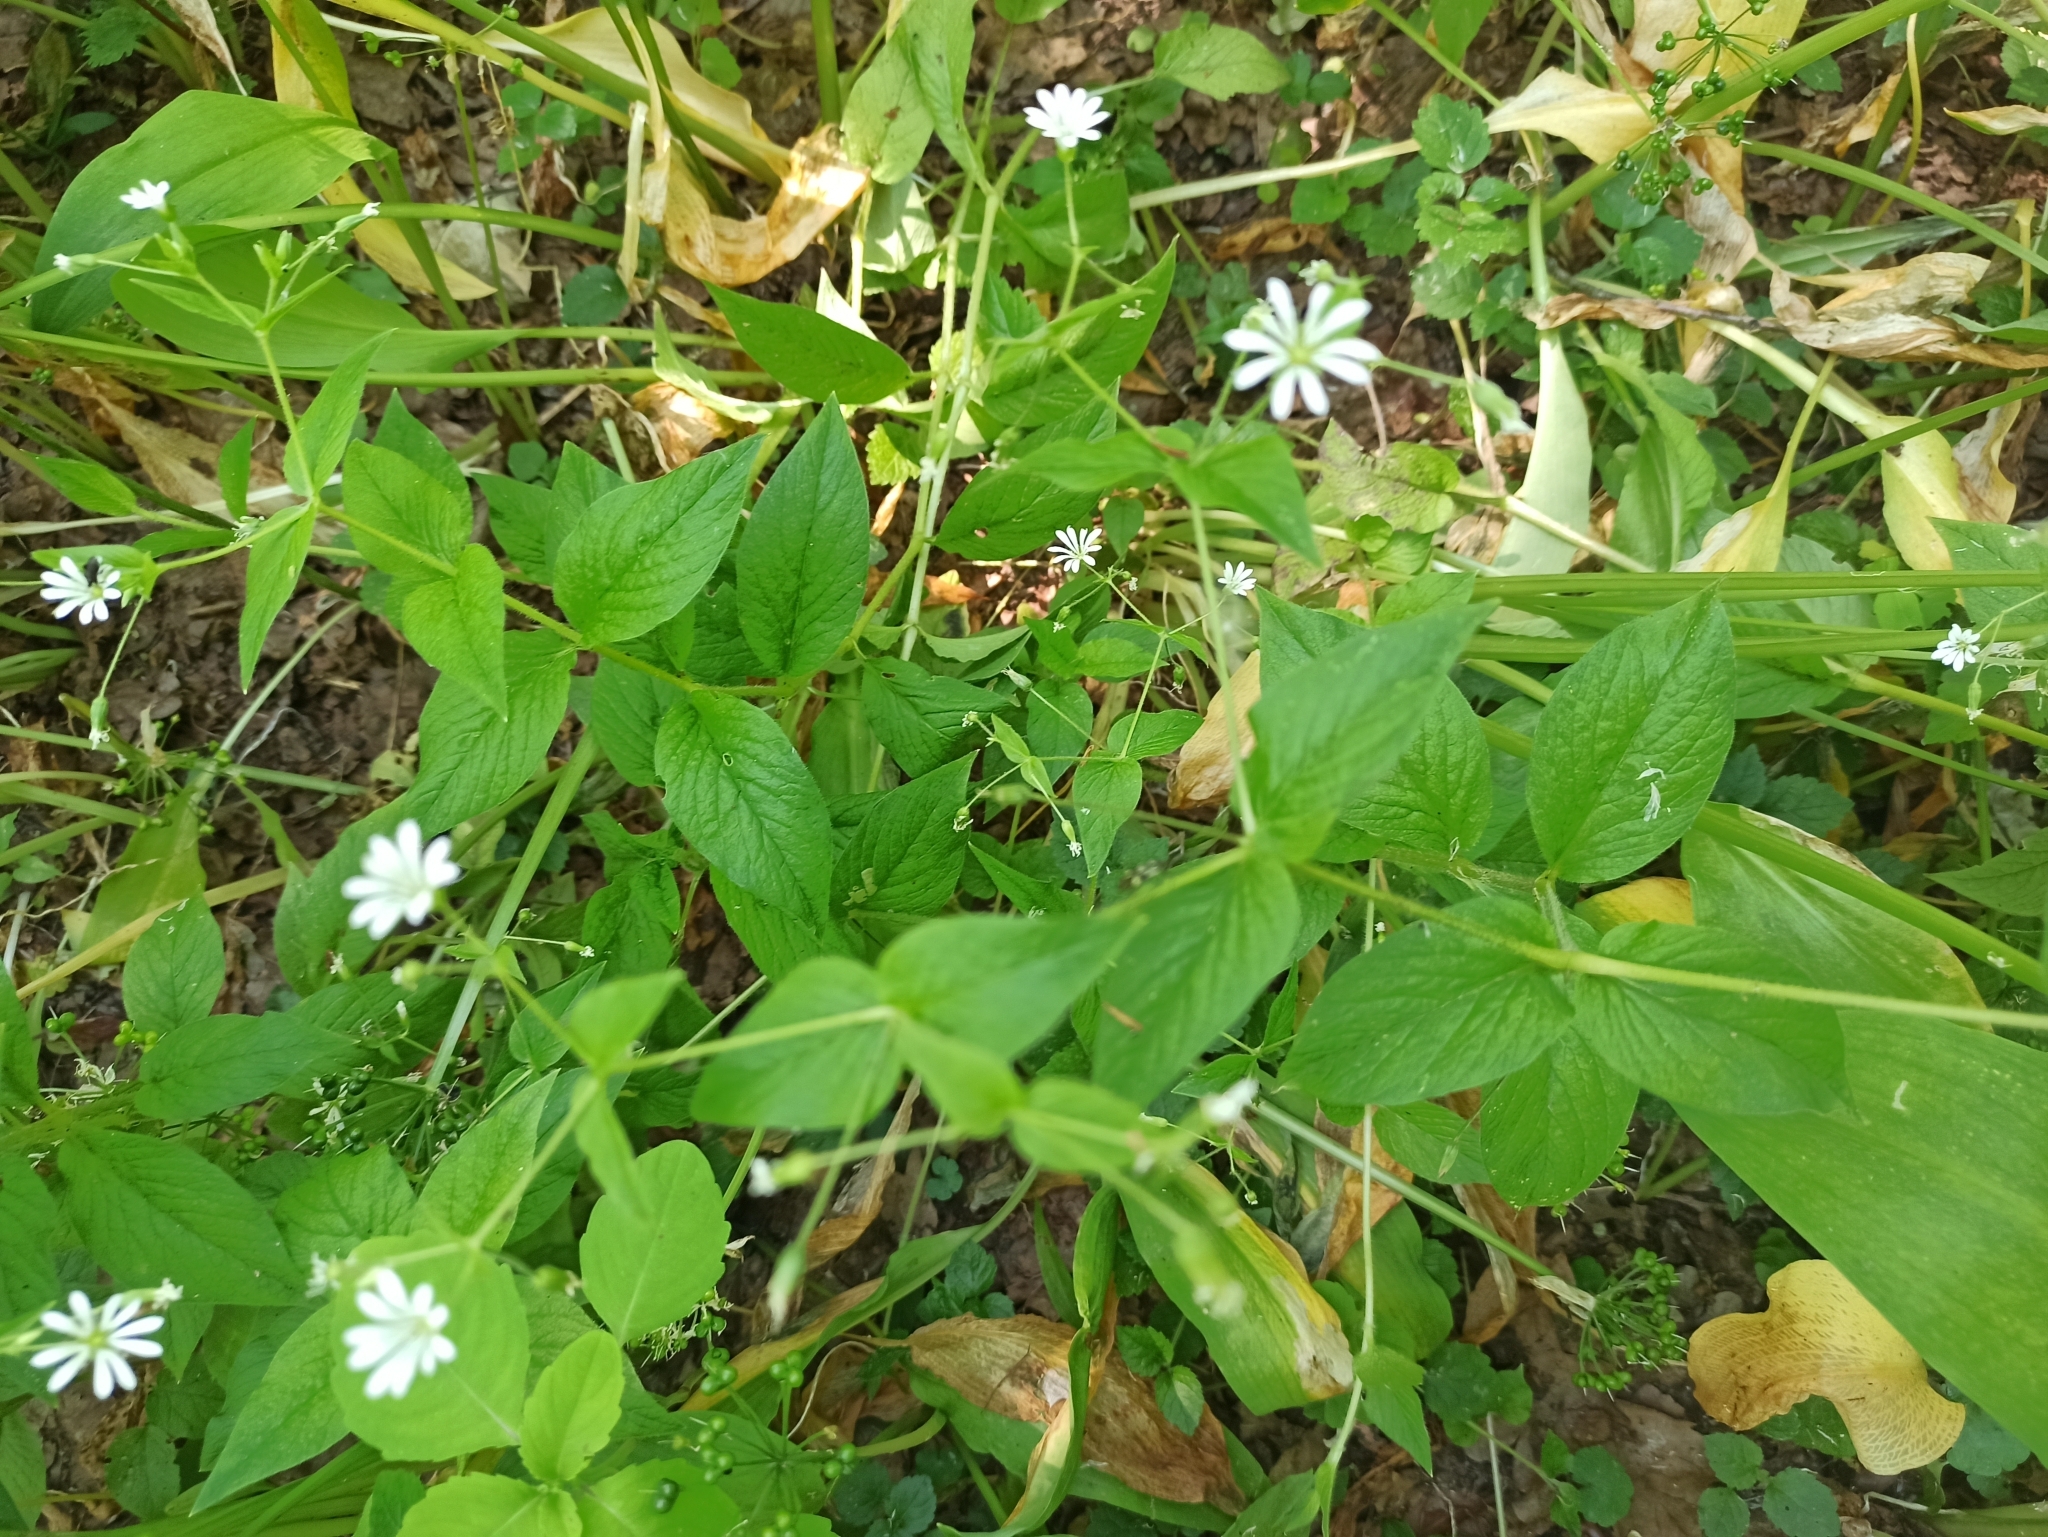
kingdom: Plantae
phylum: Tracheophyta
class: Magnoliopsida
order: Caryophyllales
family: Caryophyllaceae
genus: Stellaria
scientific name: Stellaria nemorum
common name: Wood stitchwort
